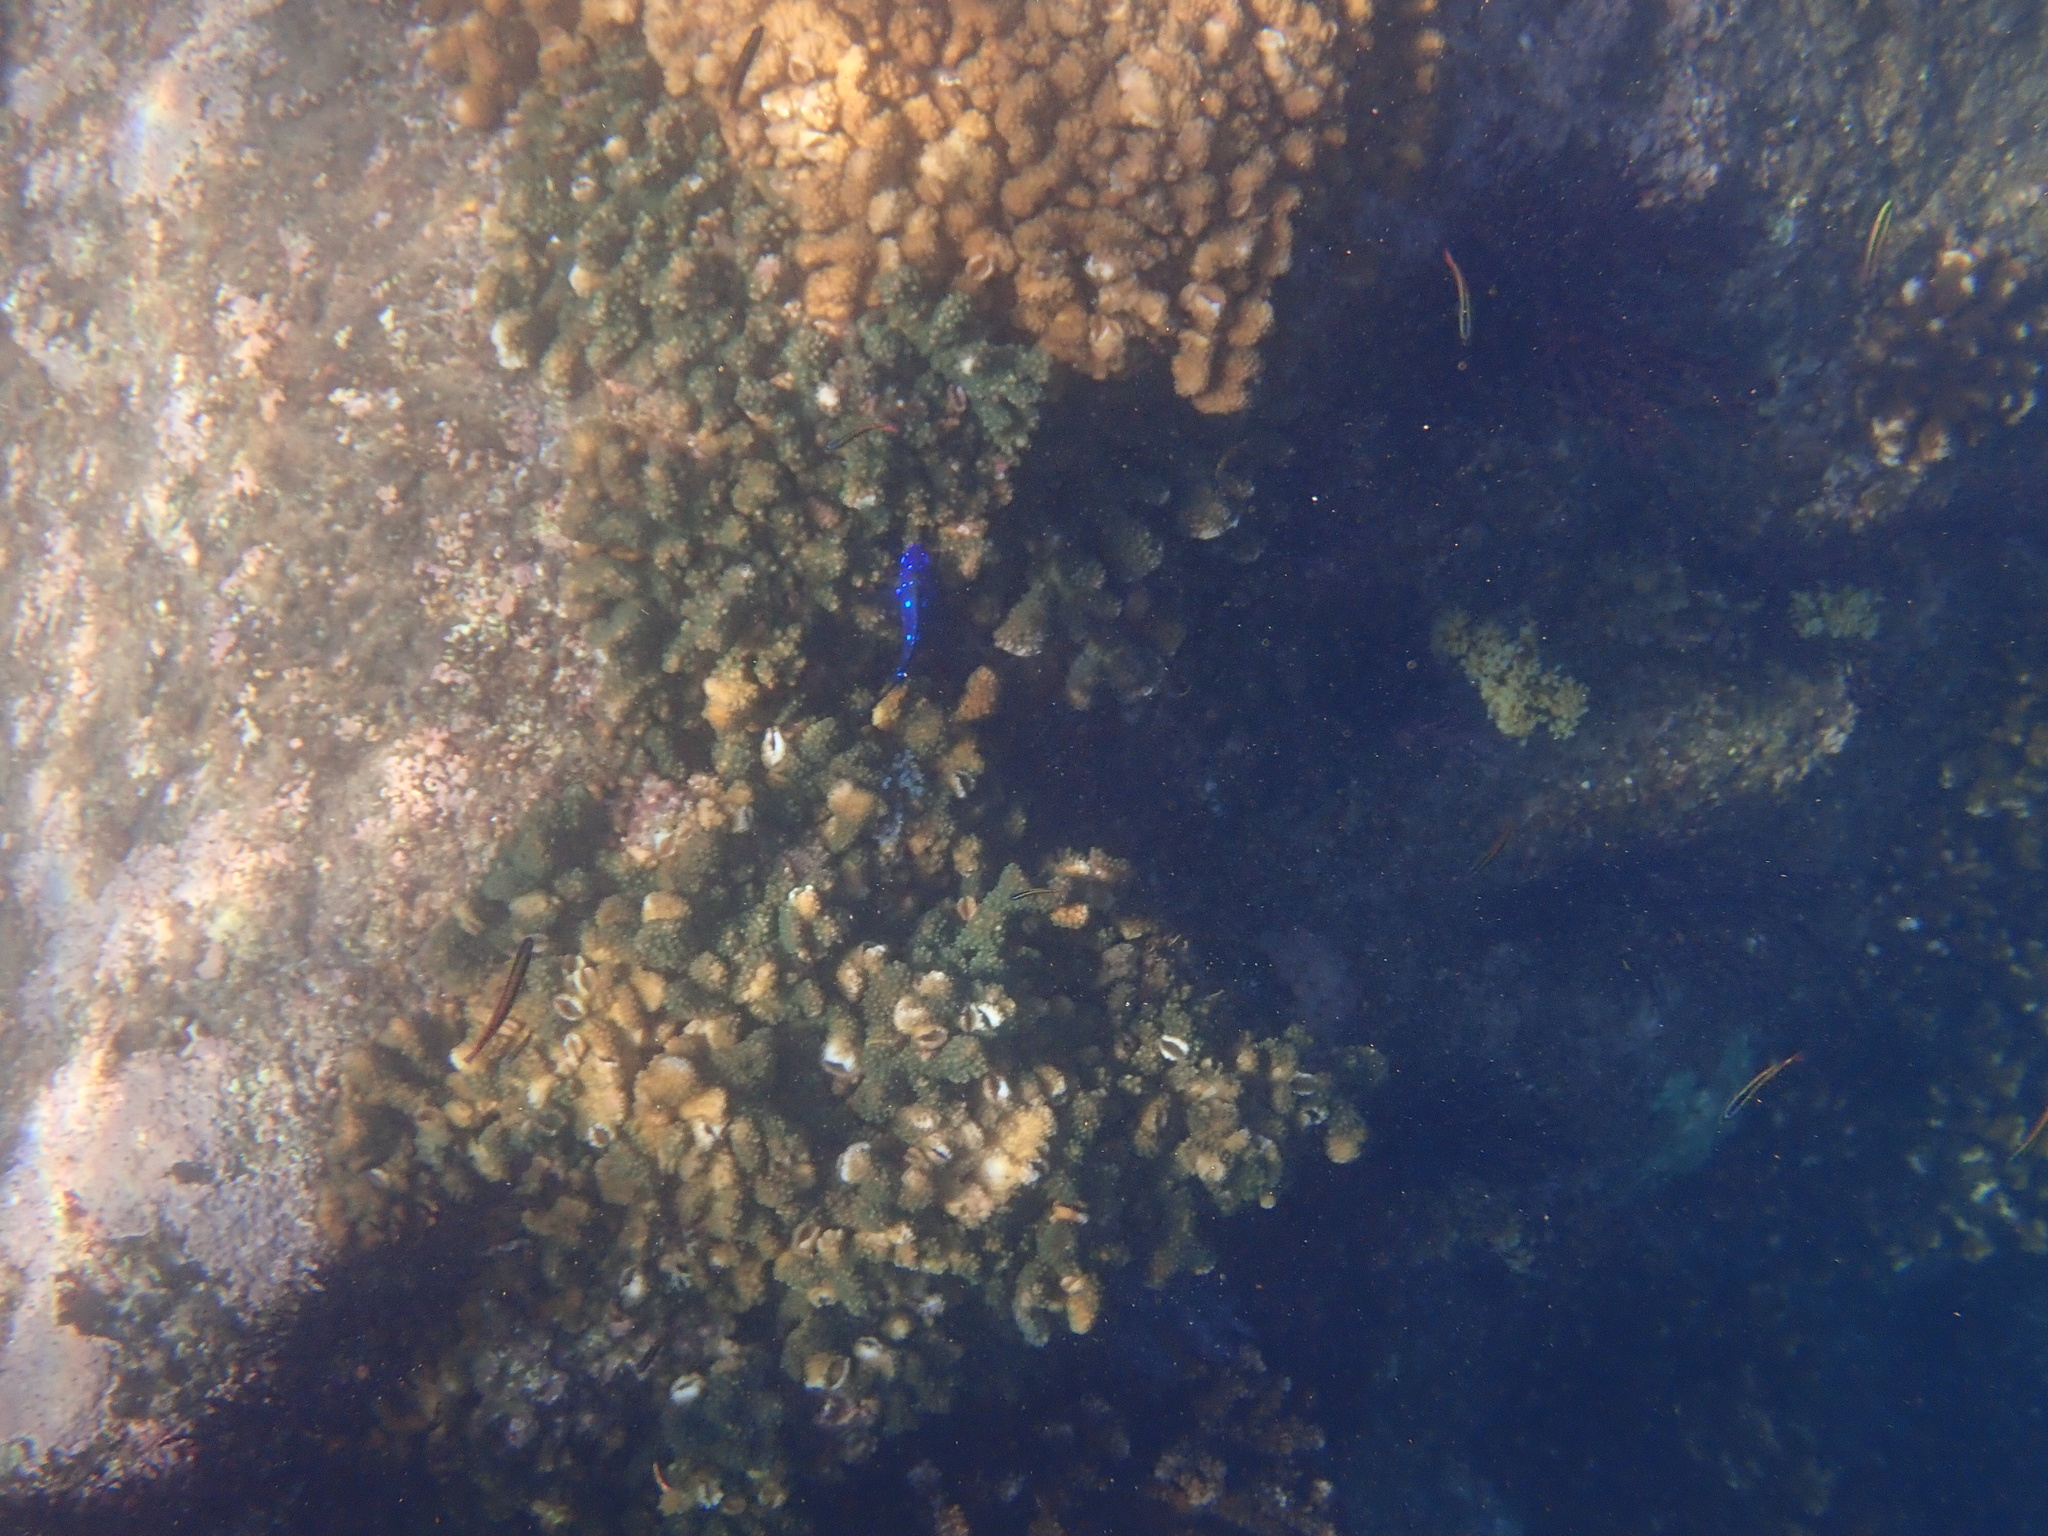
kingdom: Animalia
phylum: Chordata
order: Perciformes
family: Pomacentridae
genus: Microspathodon
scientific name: Microspathodon dorsalis
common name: Giant damselfish
